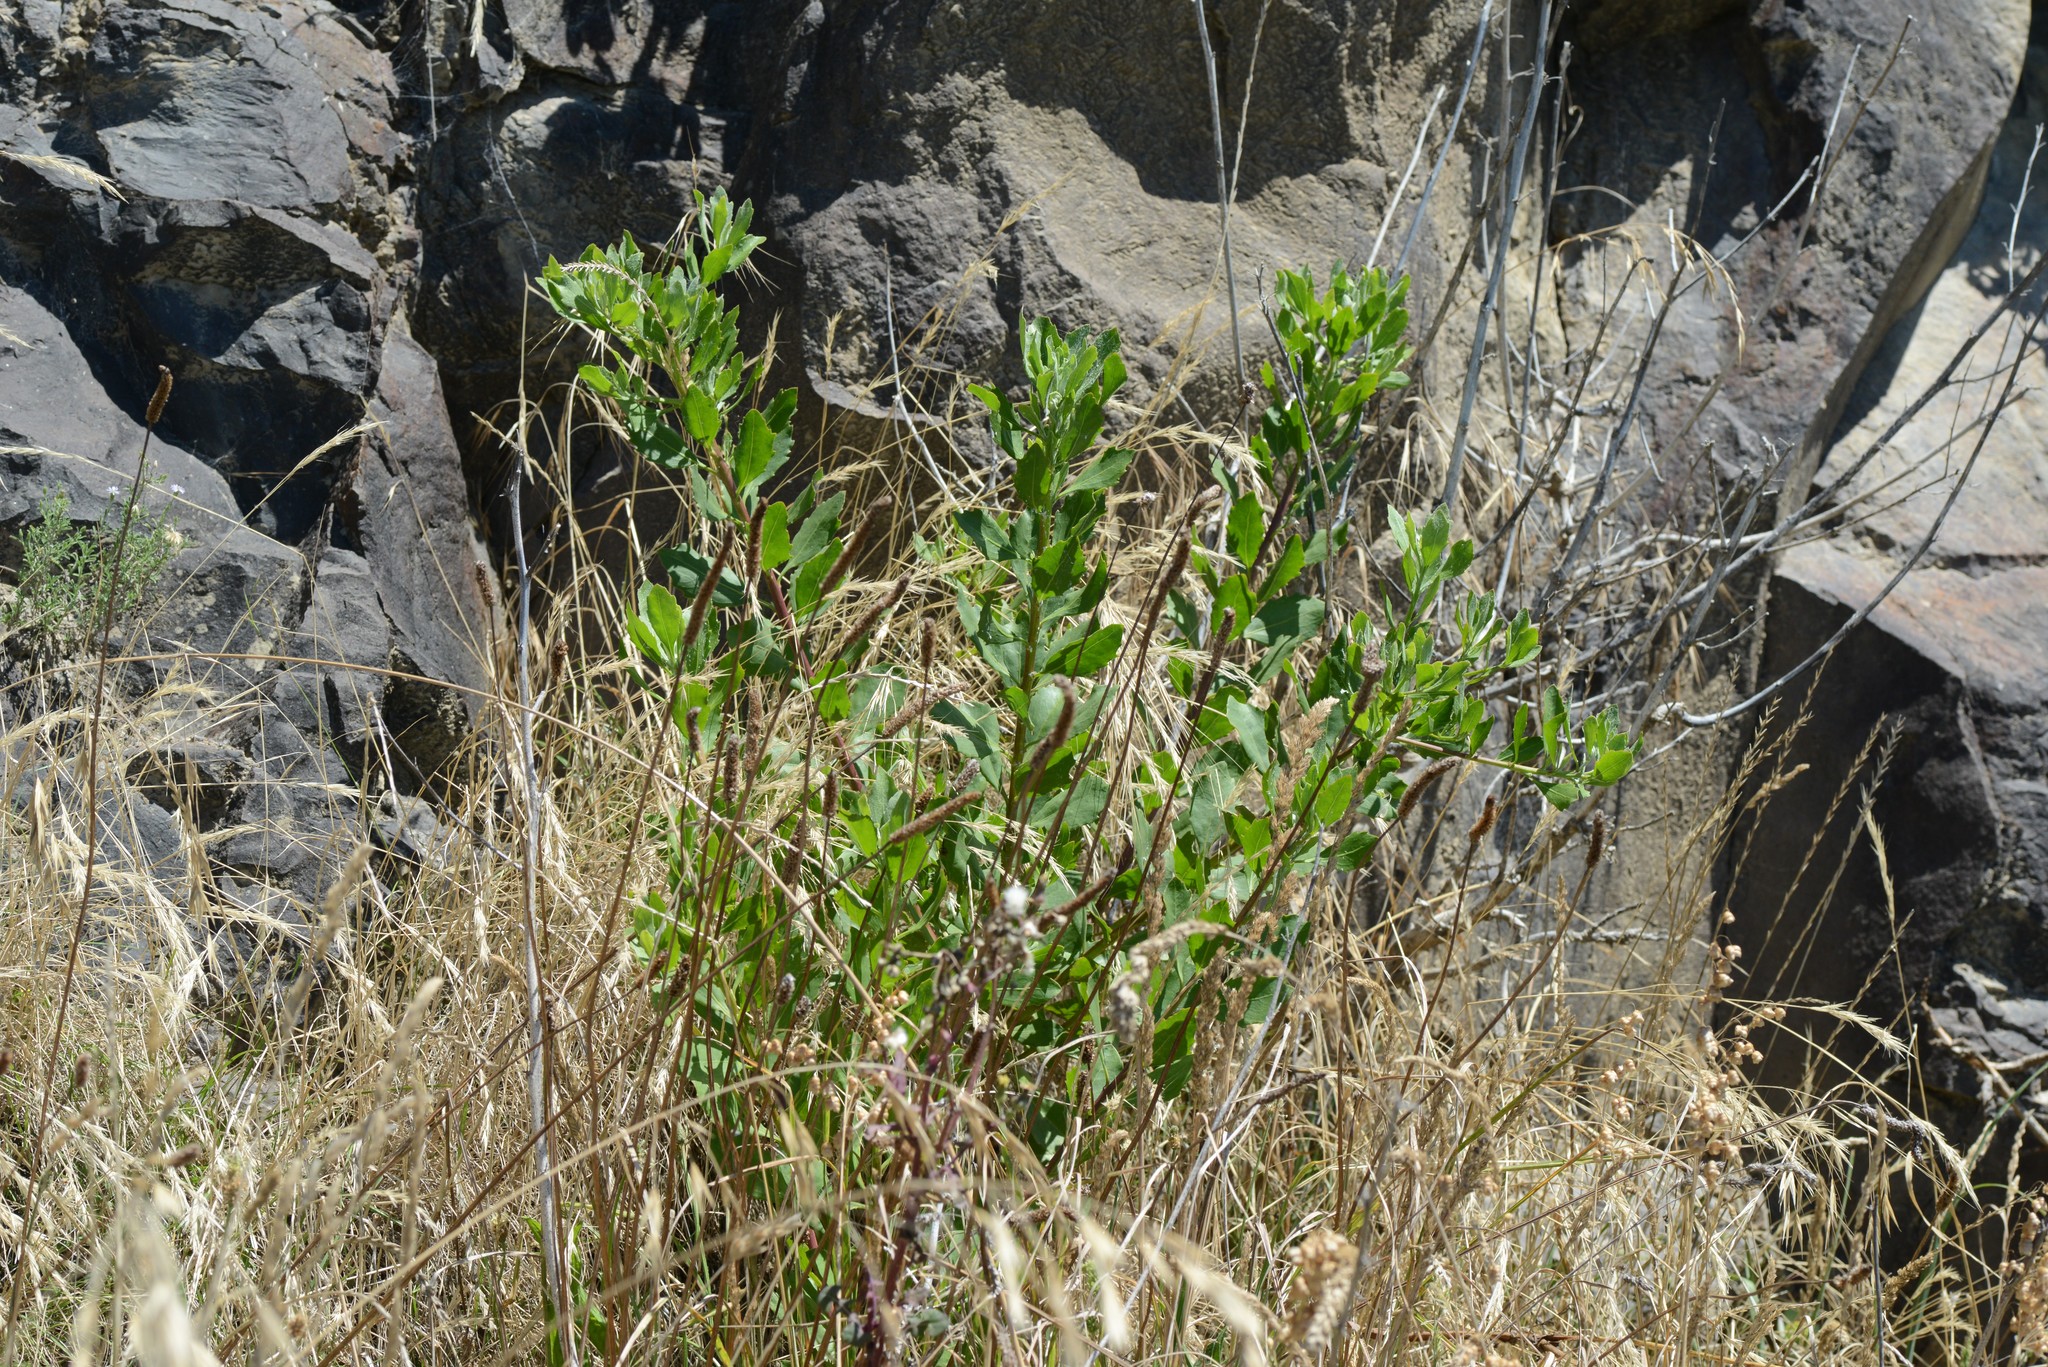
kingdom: Plantae
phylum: Tracheophyta
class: Magnoliopsida
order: Asterales
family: Asteraceae
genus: Osteospermum
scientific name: Osteospermum moniliferum
